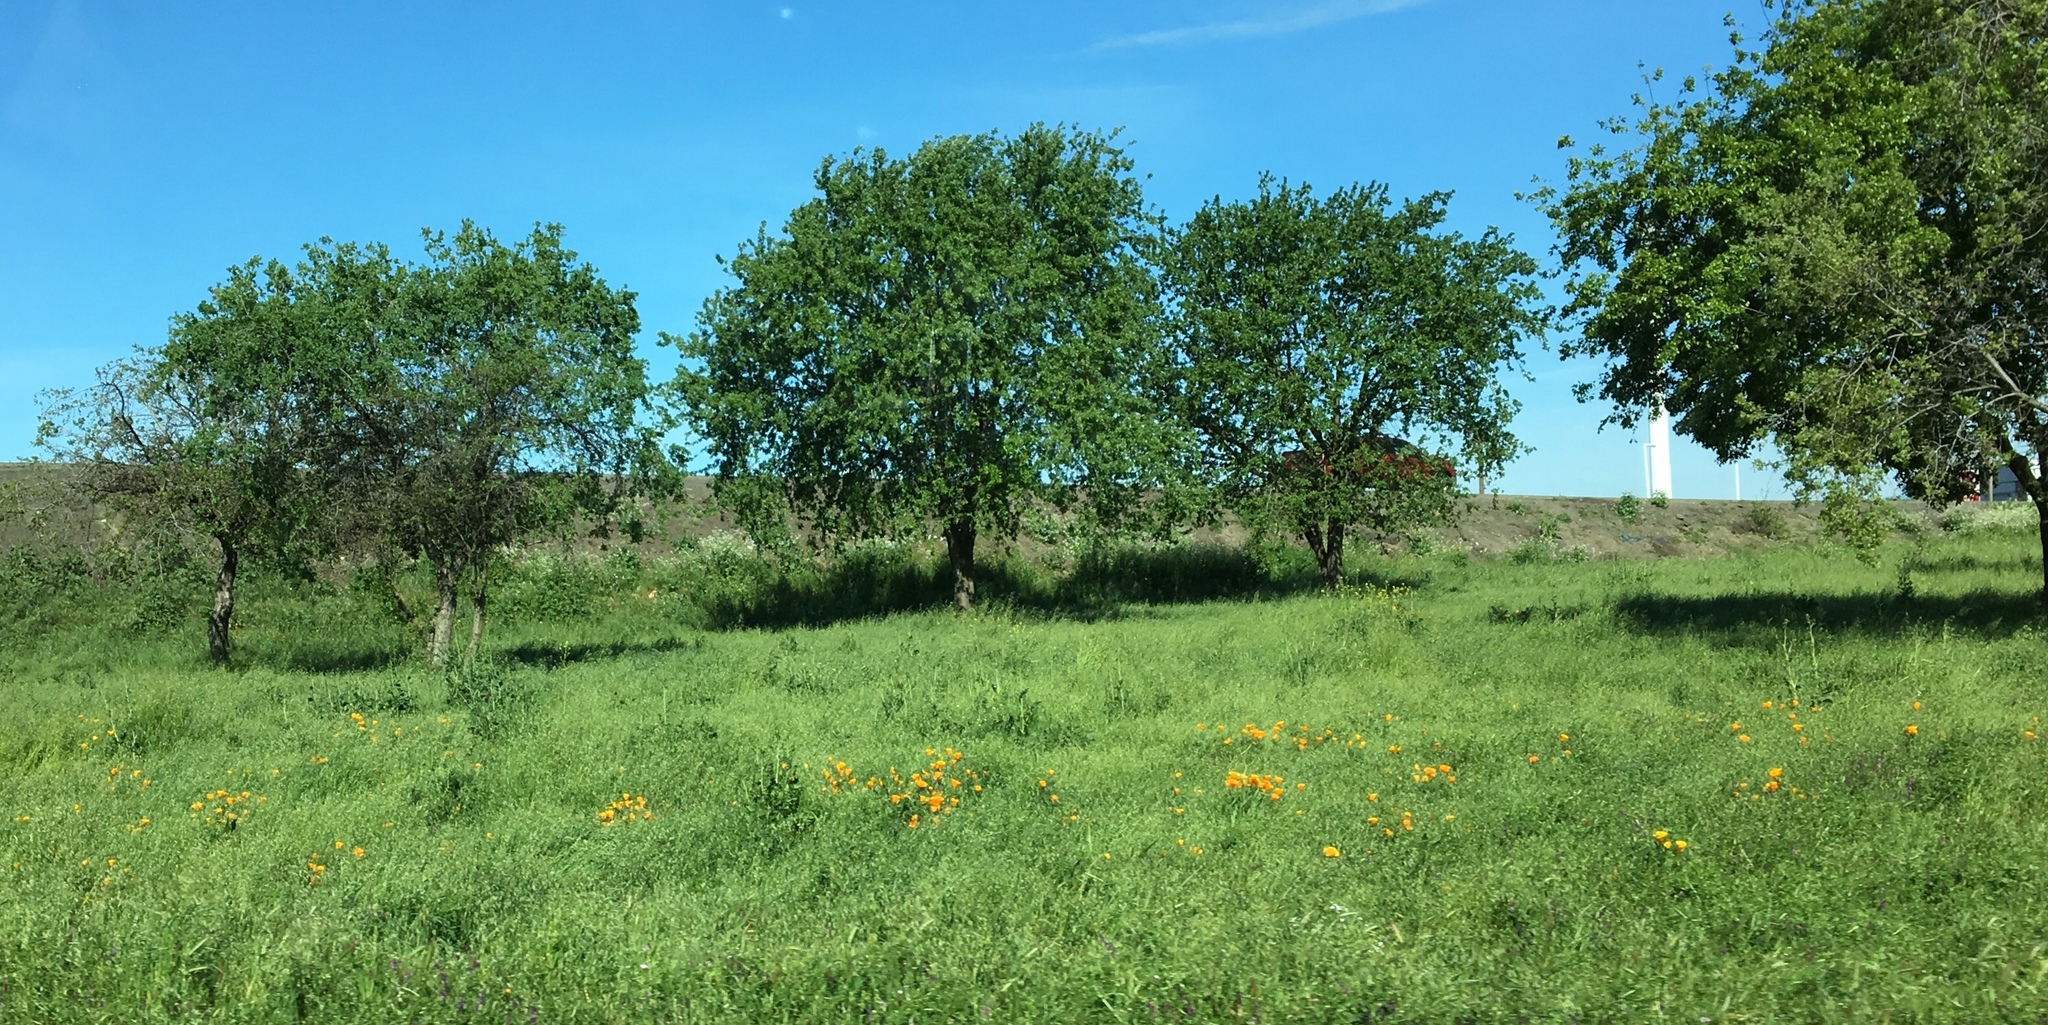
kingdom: Plantae
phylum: Tracheophyta
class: Magnoliopsida
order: Ranunculales
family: Papaveraceae
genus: Eschscholzia
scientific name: Eschscholzia californica
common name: California poppy
